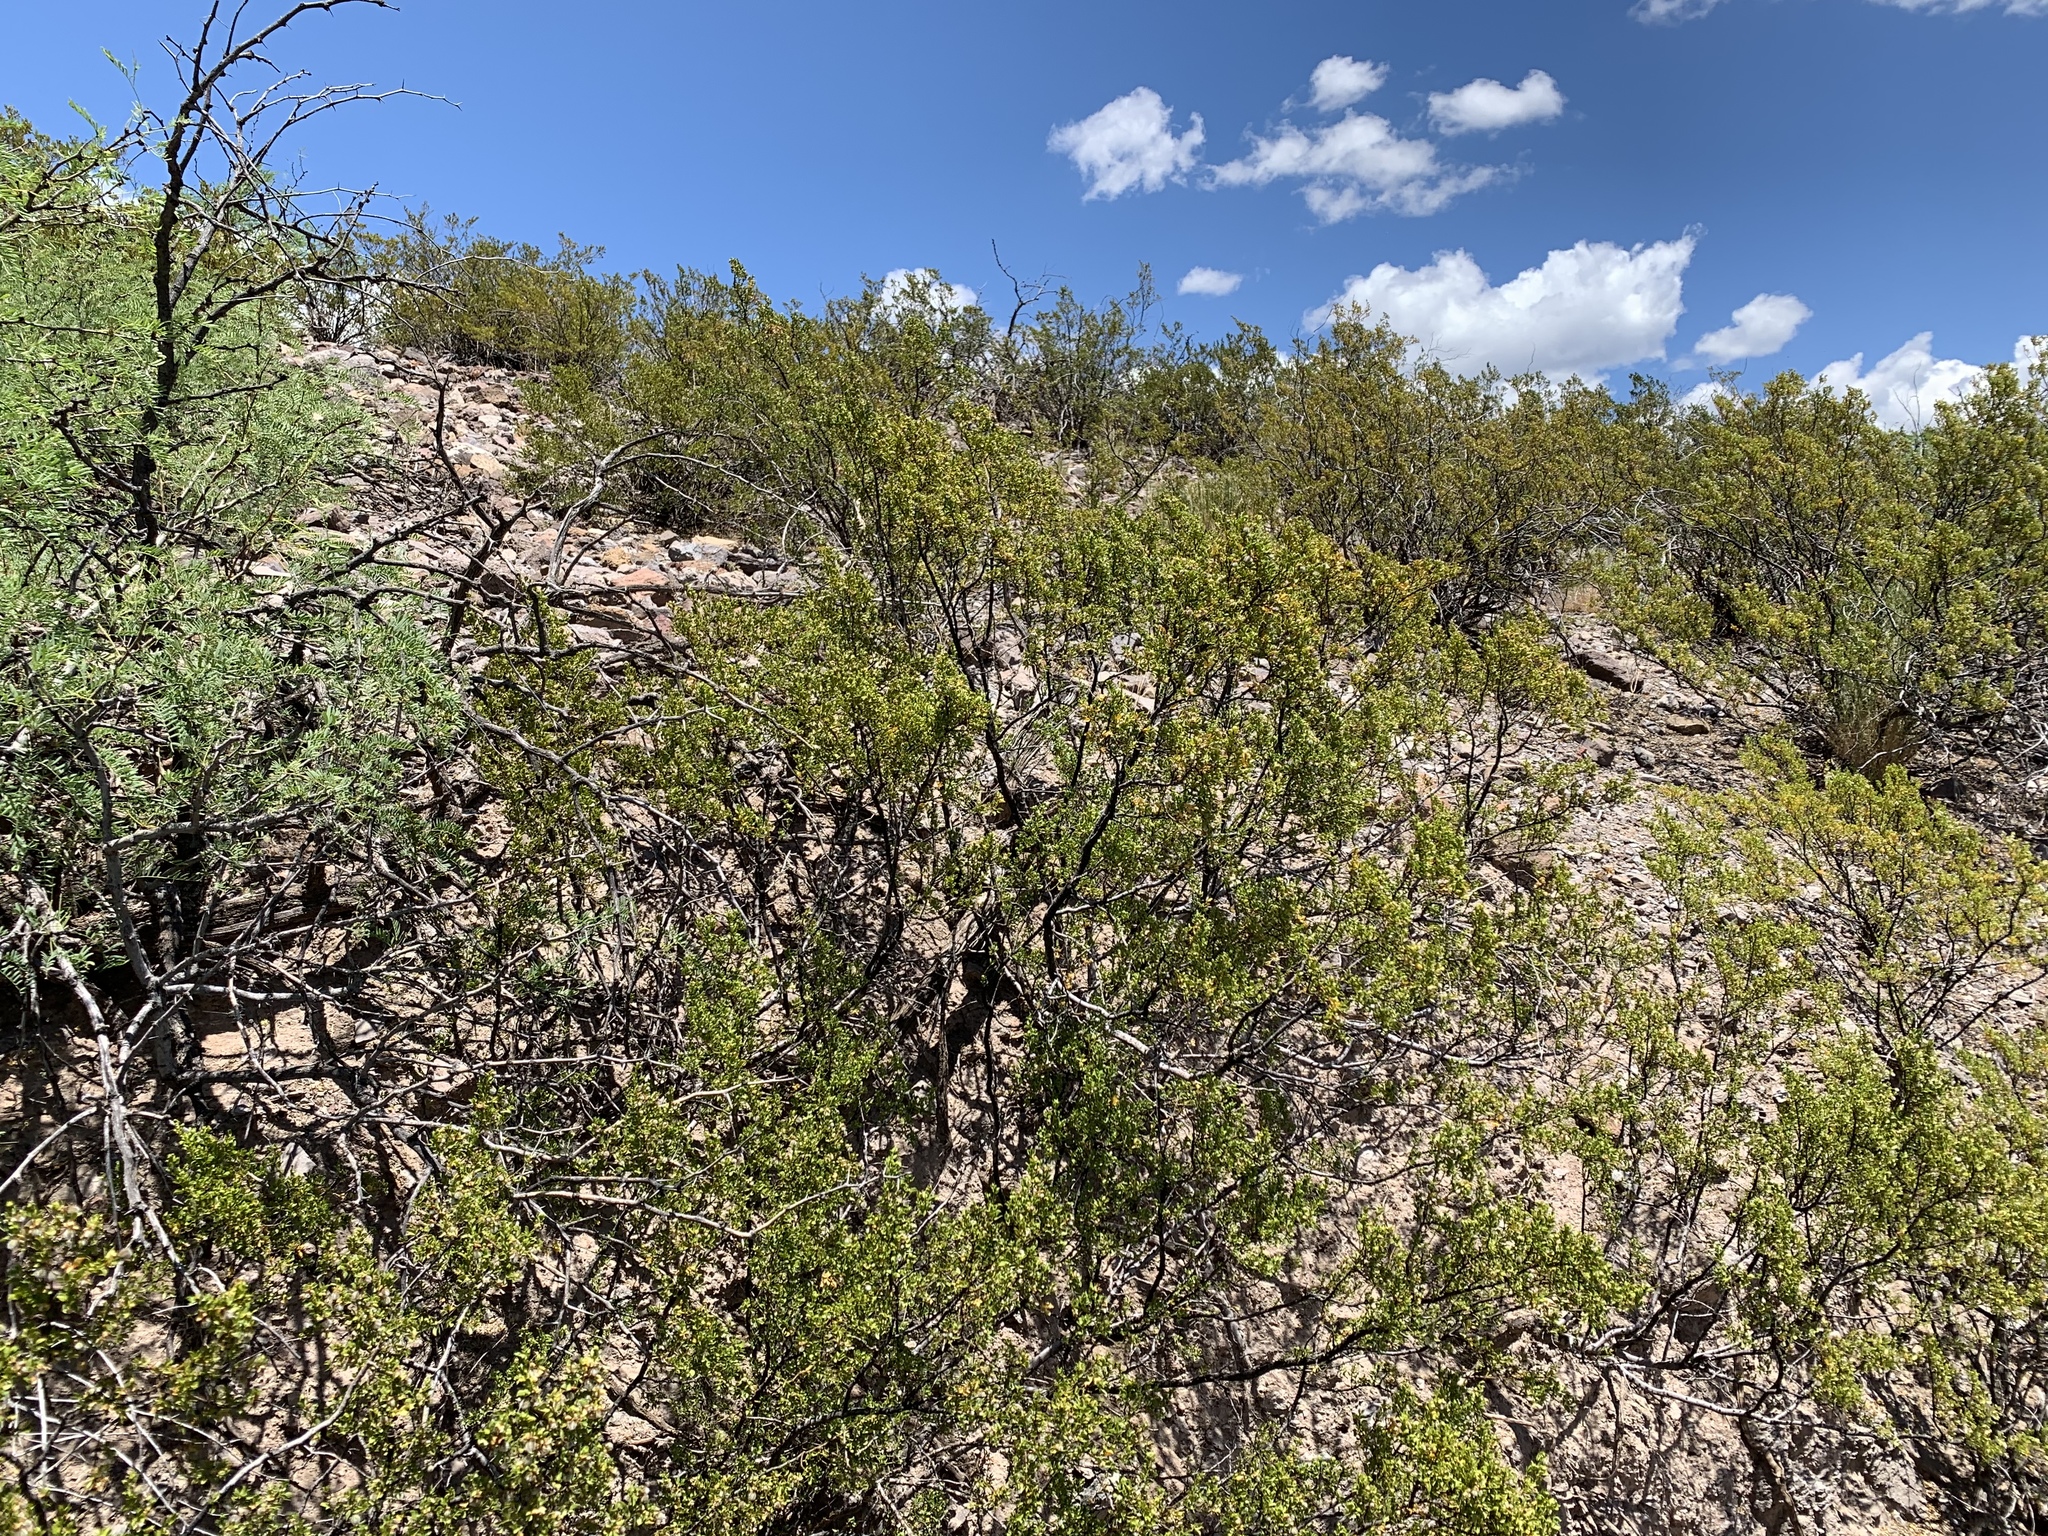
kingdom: Plantae
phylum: Tracheophyta
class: Magnoliopsida
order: Zygophyllales
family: Zygophyllaceae
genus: Larrea
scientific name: Larrea tridentata
